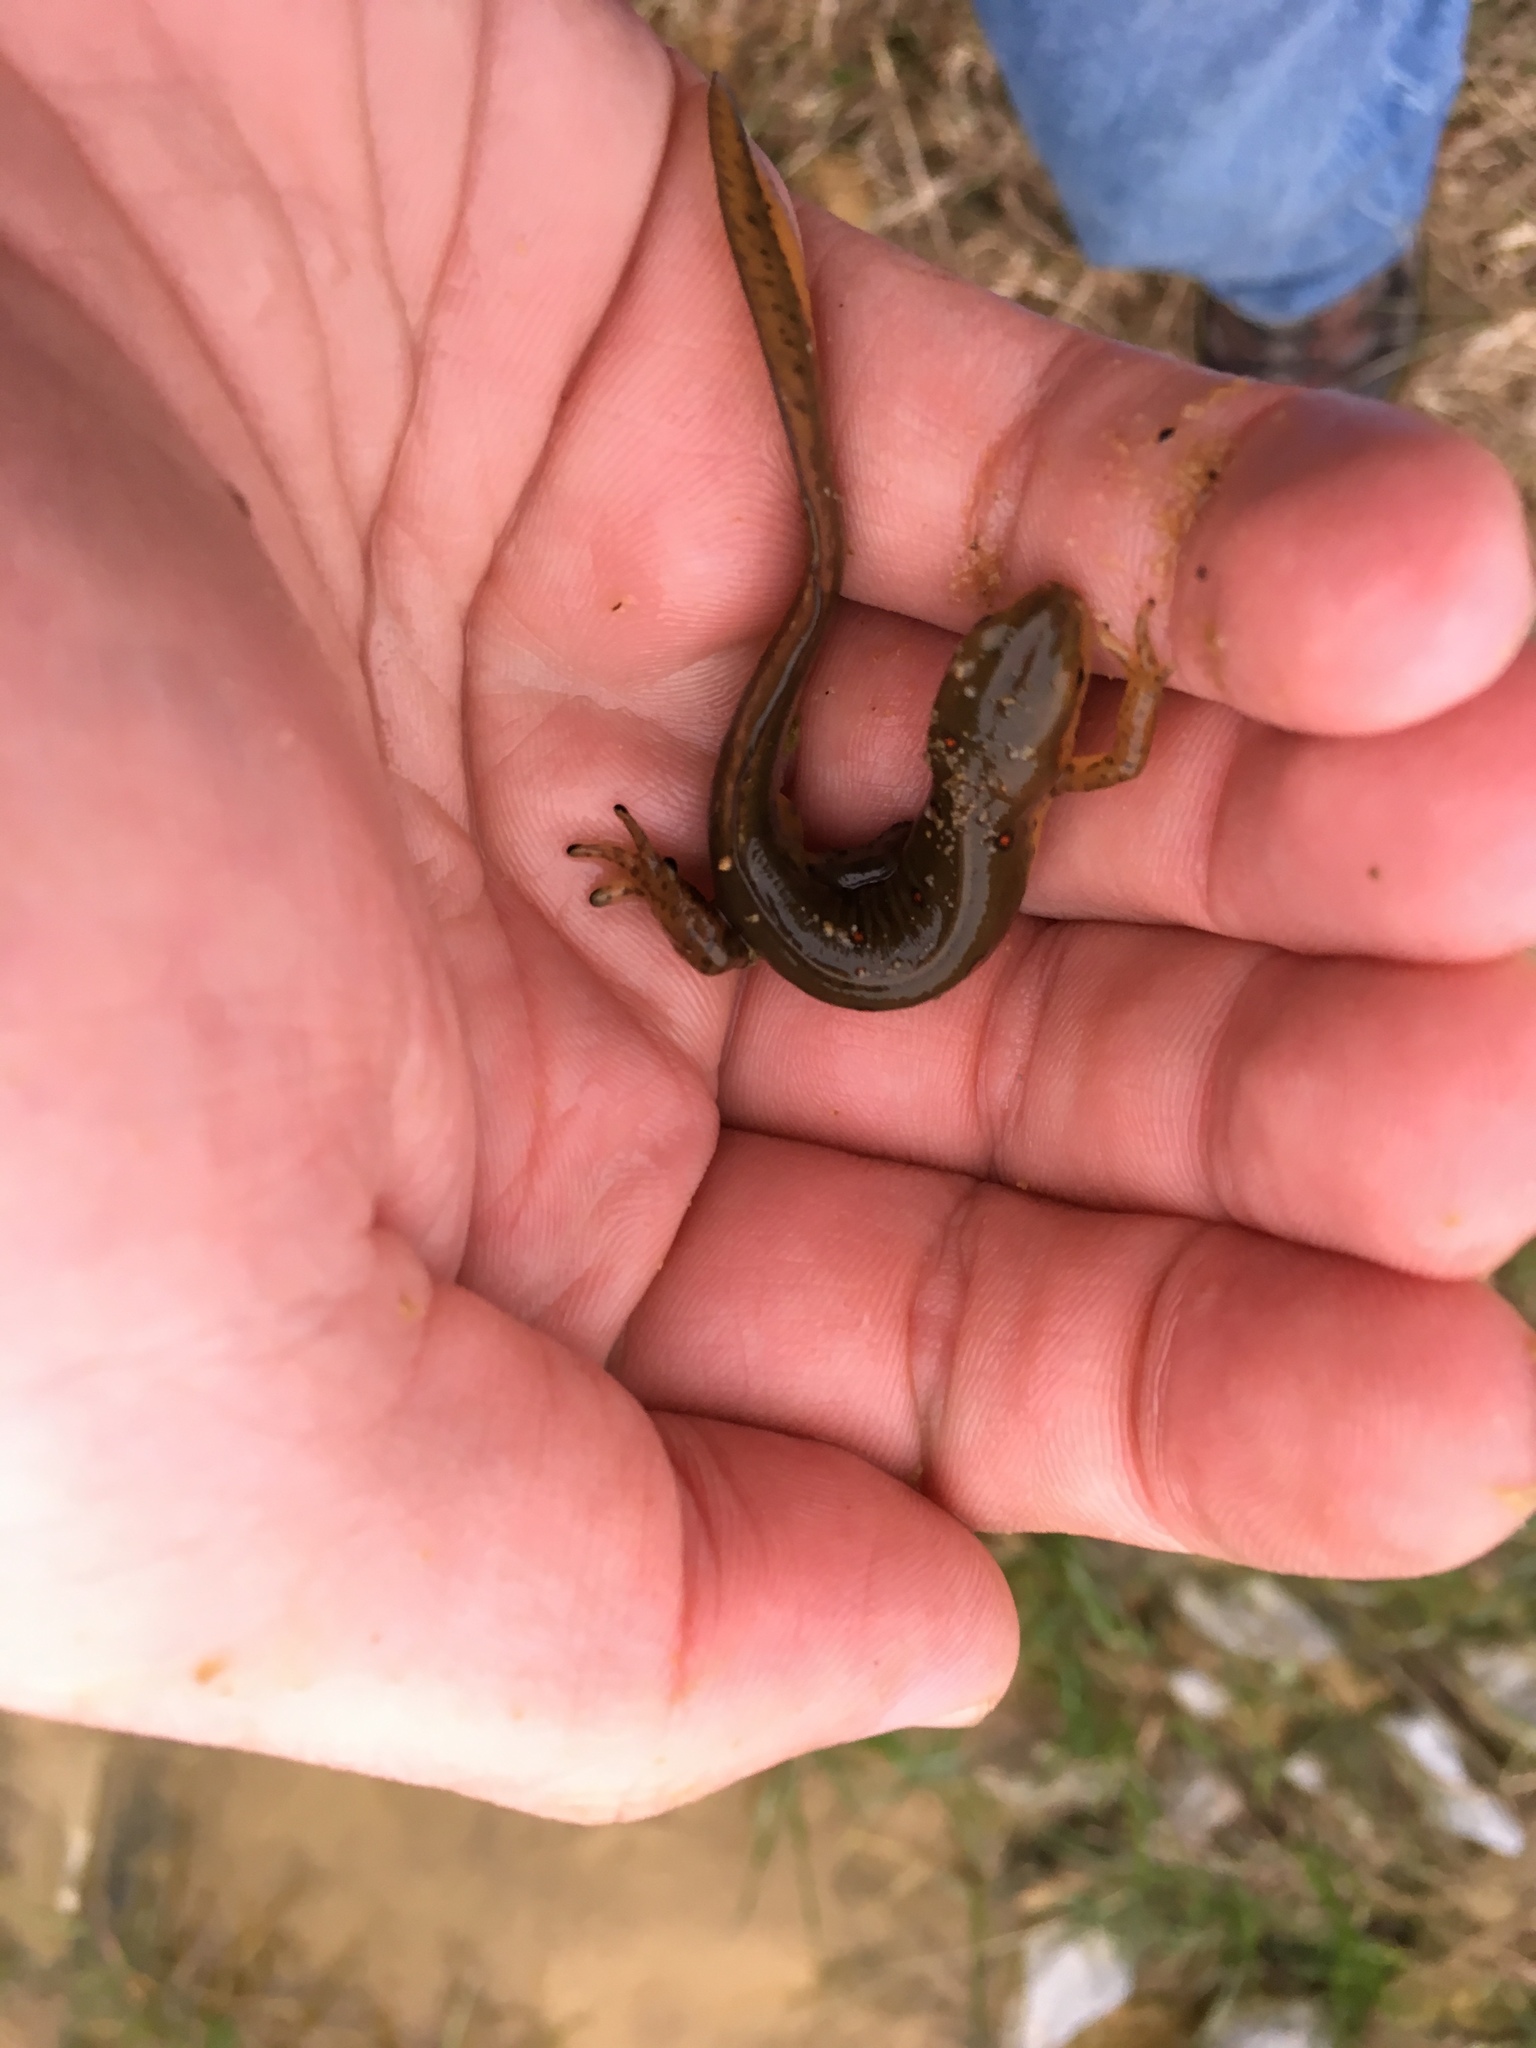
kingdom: Animalia
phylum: Chordata
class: Amphibia
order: Caudata
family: Salamandridae
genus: Notophthalmus
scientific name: Notophthalmus viridescens
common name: Eastern newt
